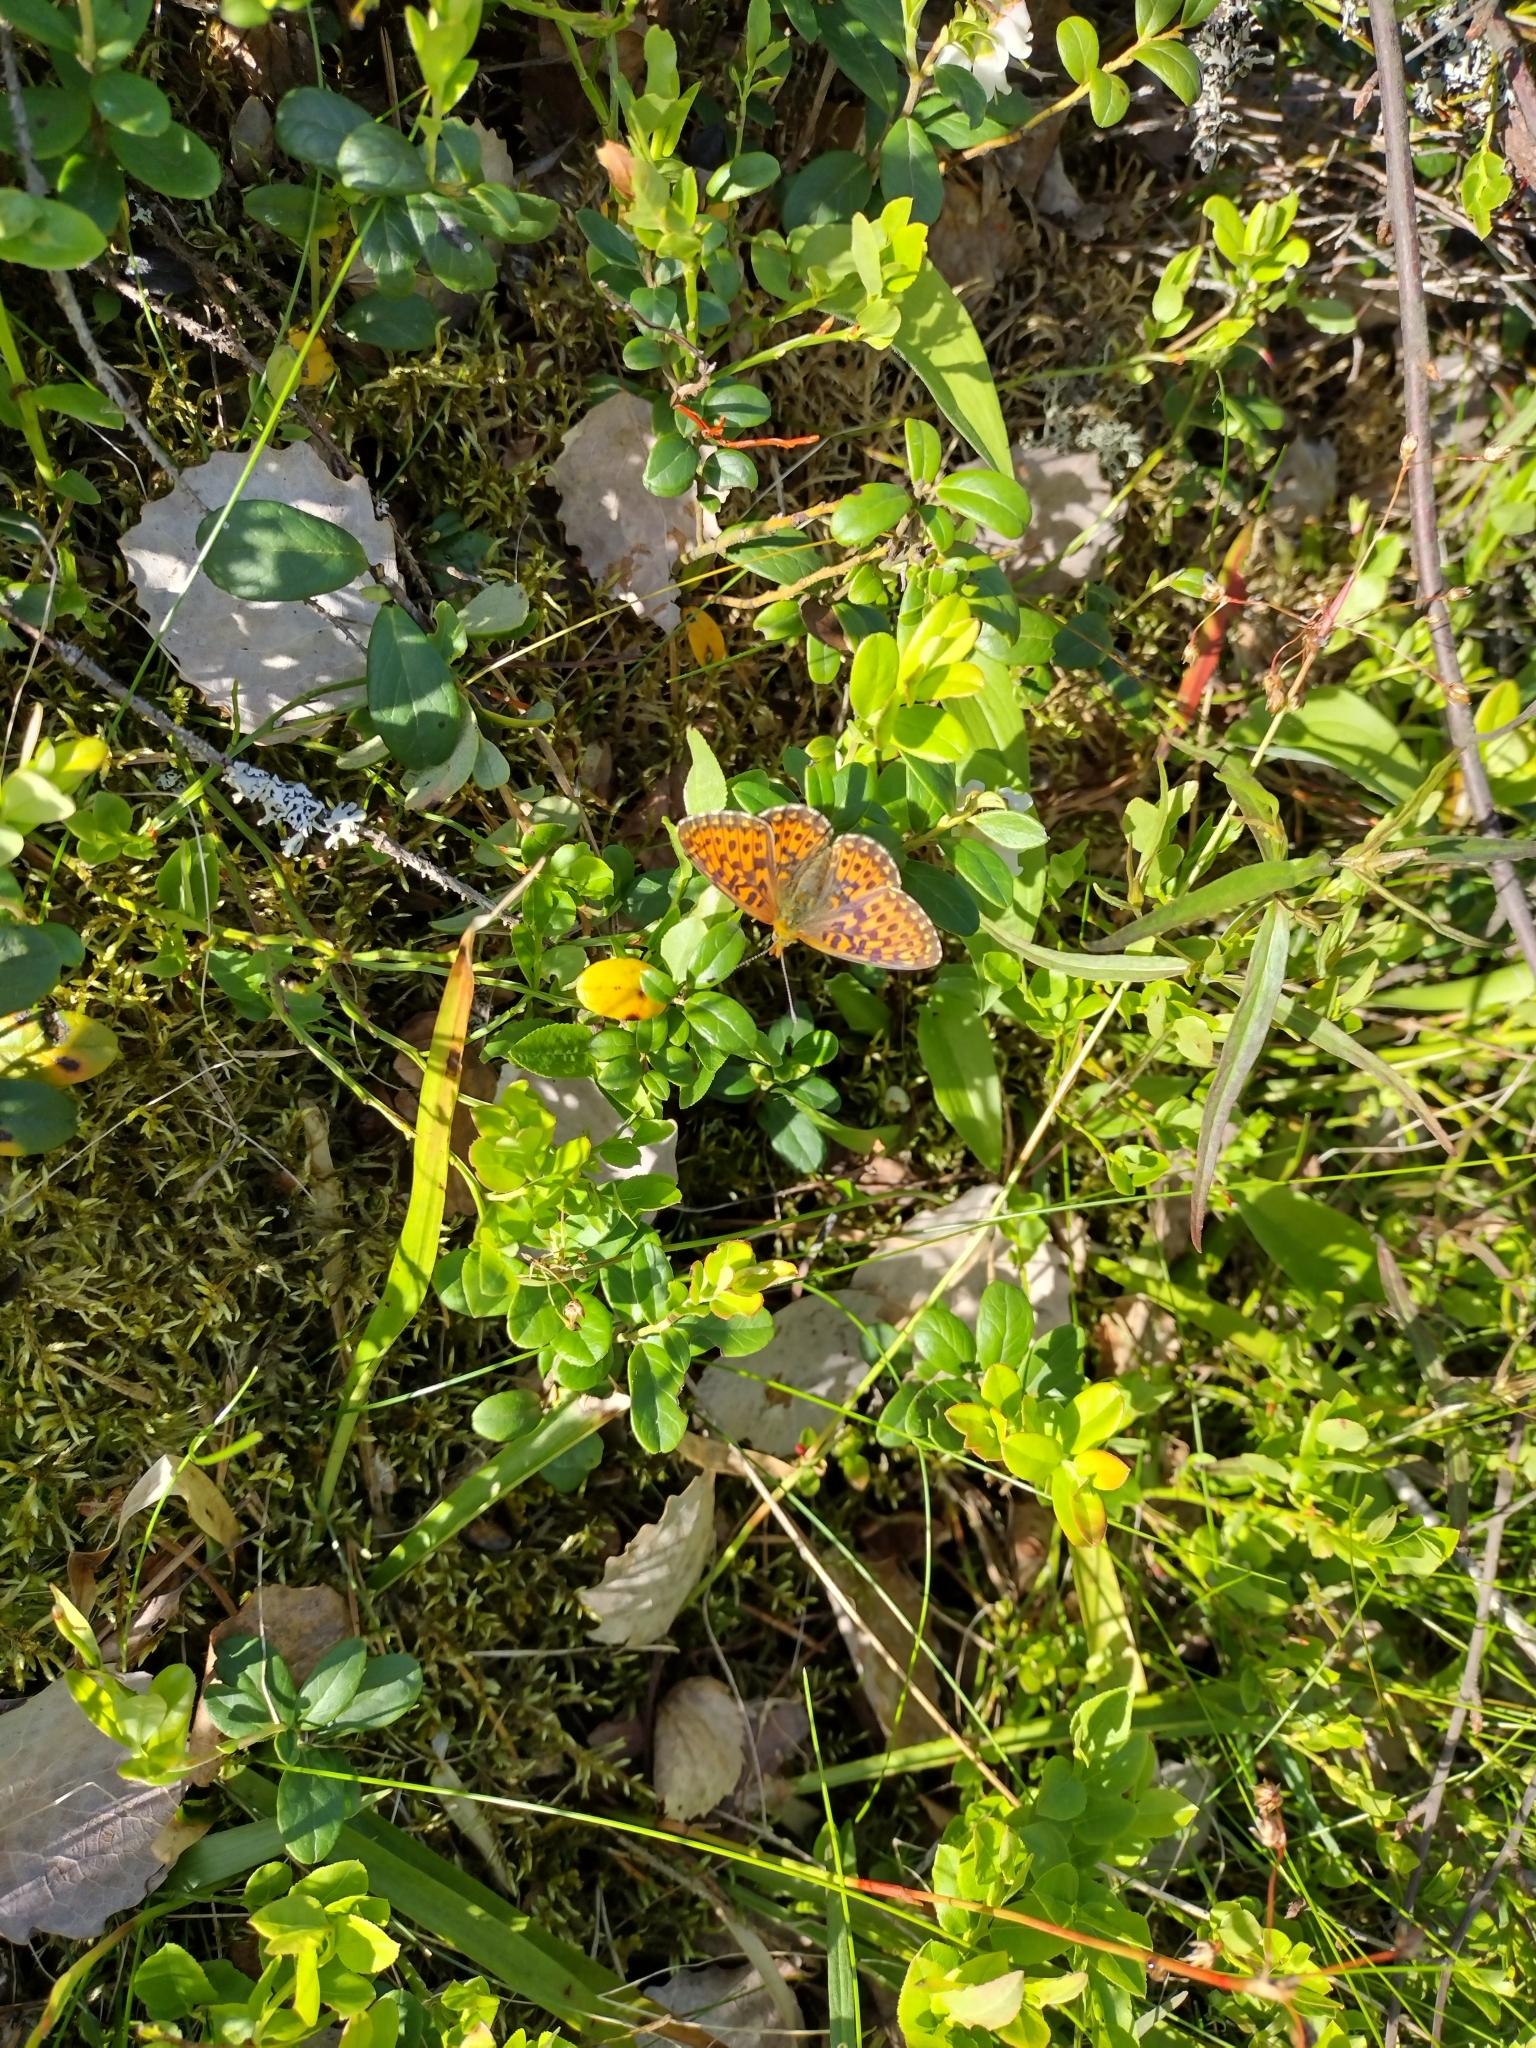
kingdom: Animalia
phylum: Arthropoda
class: Insecta
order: Lepidoptera
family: Nymphalidae
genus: Clossiana
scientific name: Clossiana euphrosyne
